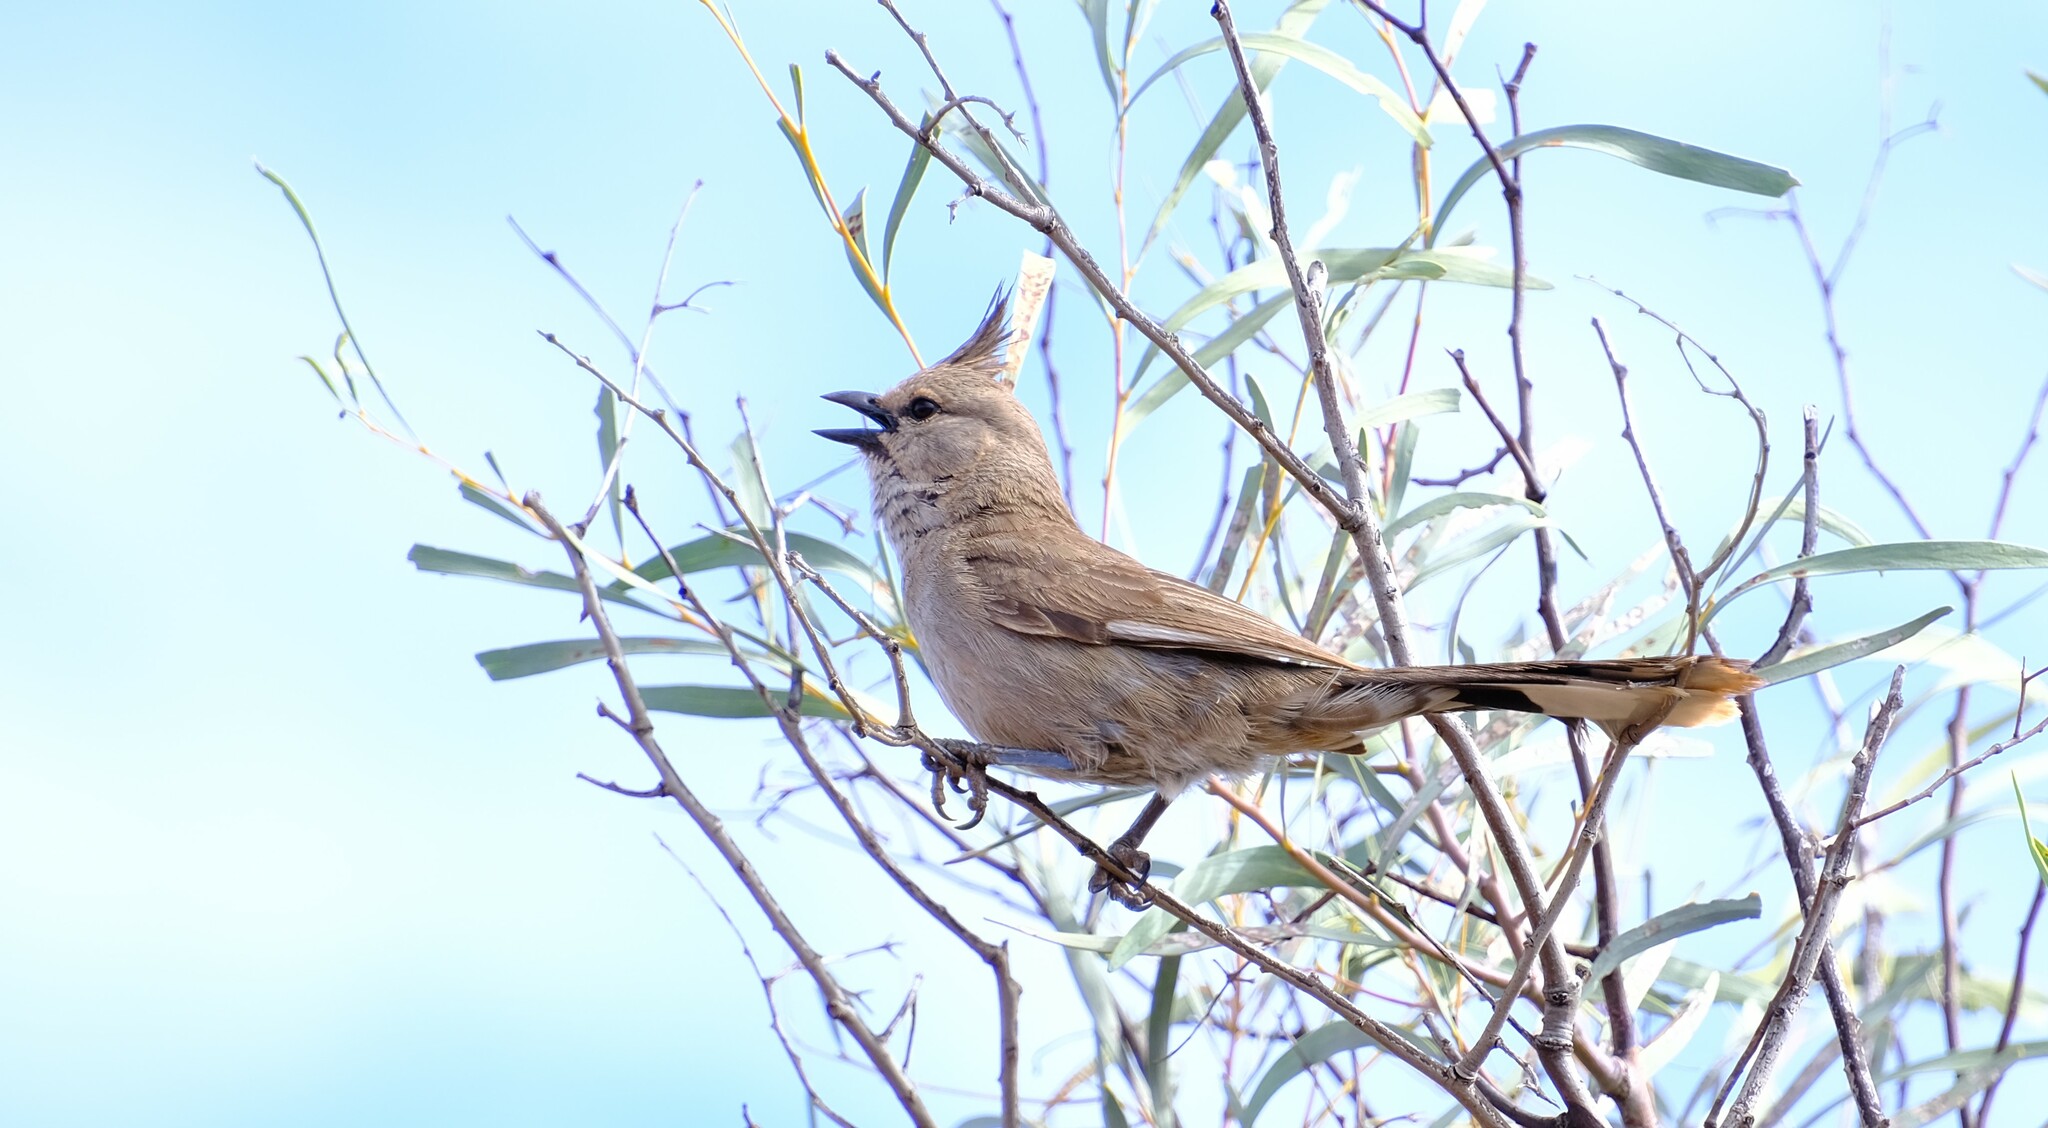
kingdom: Animalia
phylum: Chordata
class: Aves
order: Passeriformes
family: Psophodidae
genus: Psophodes
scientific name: Psophodes occidentalis
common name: Chiming wedgebill
